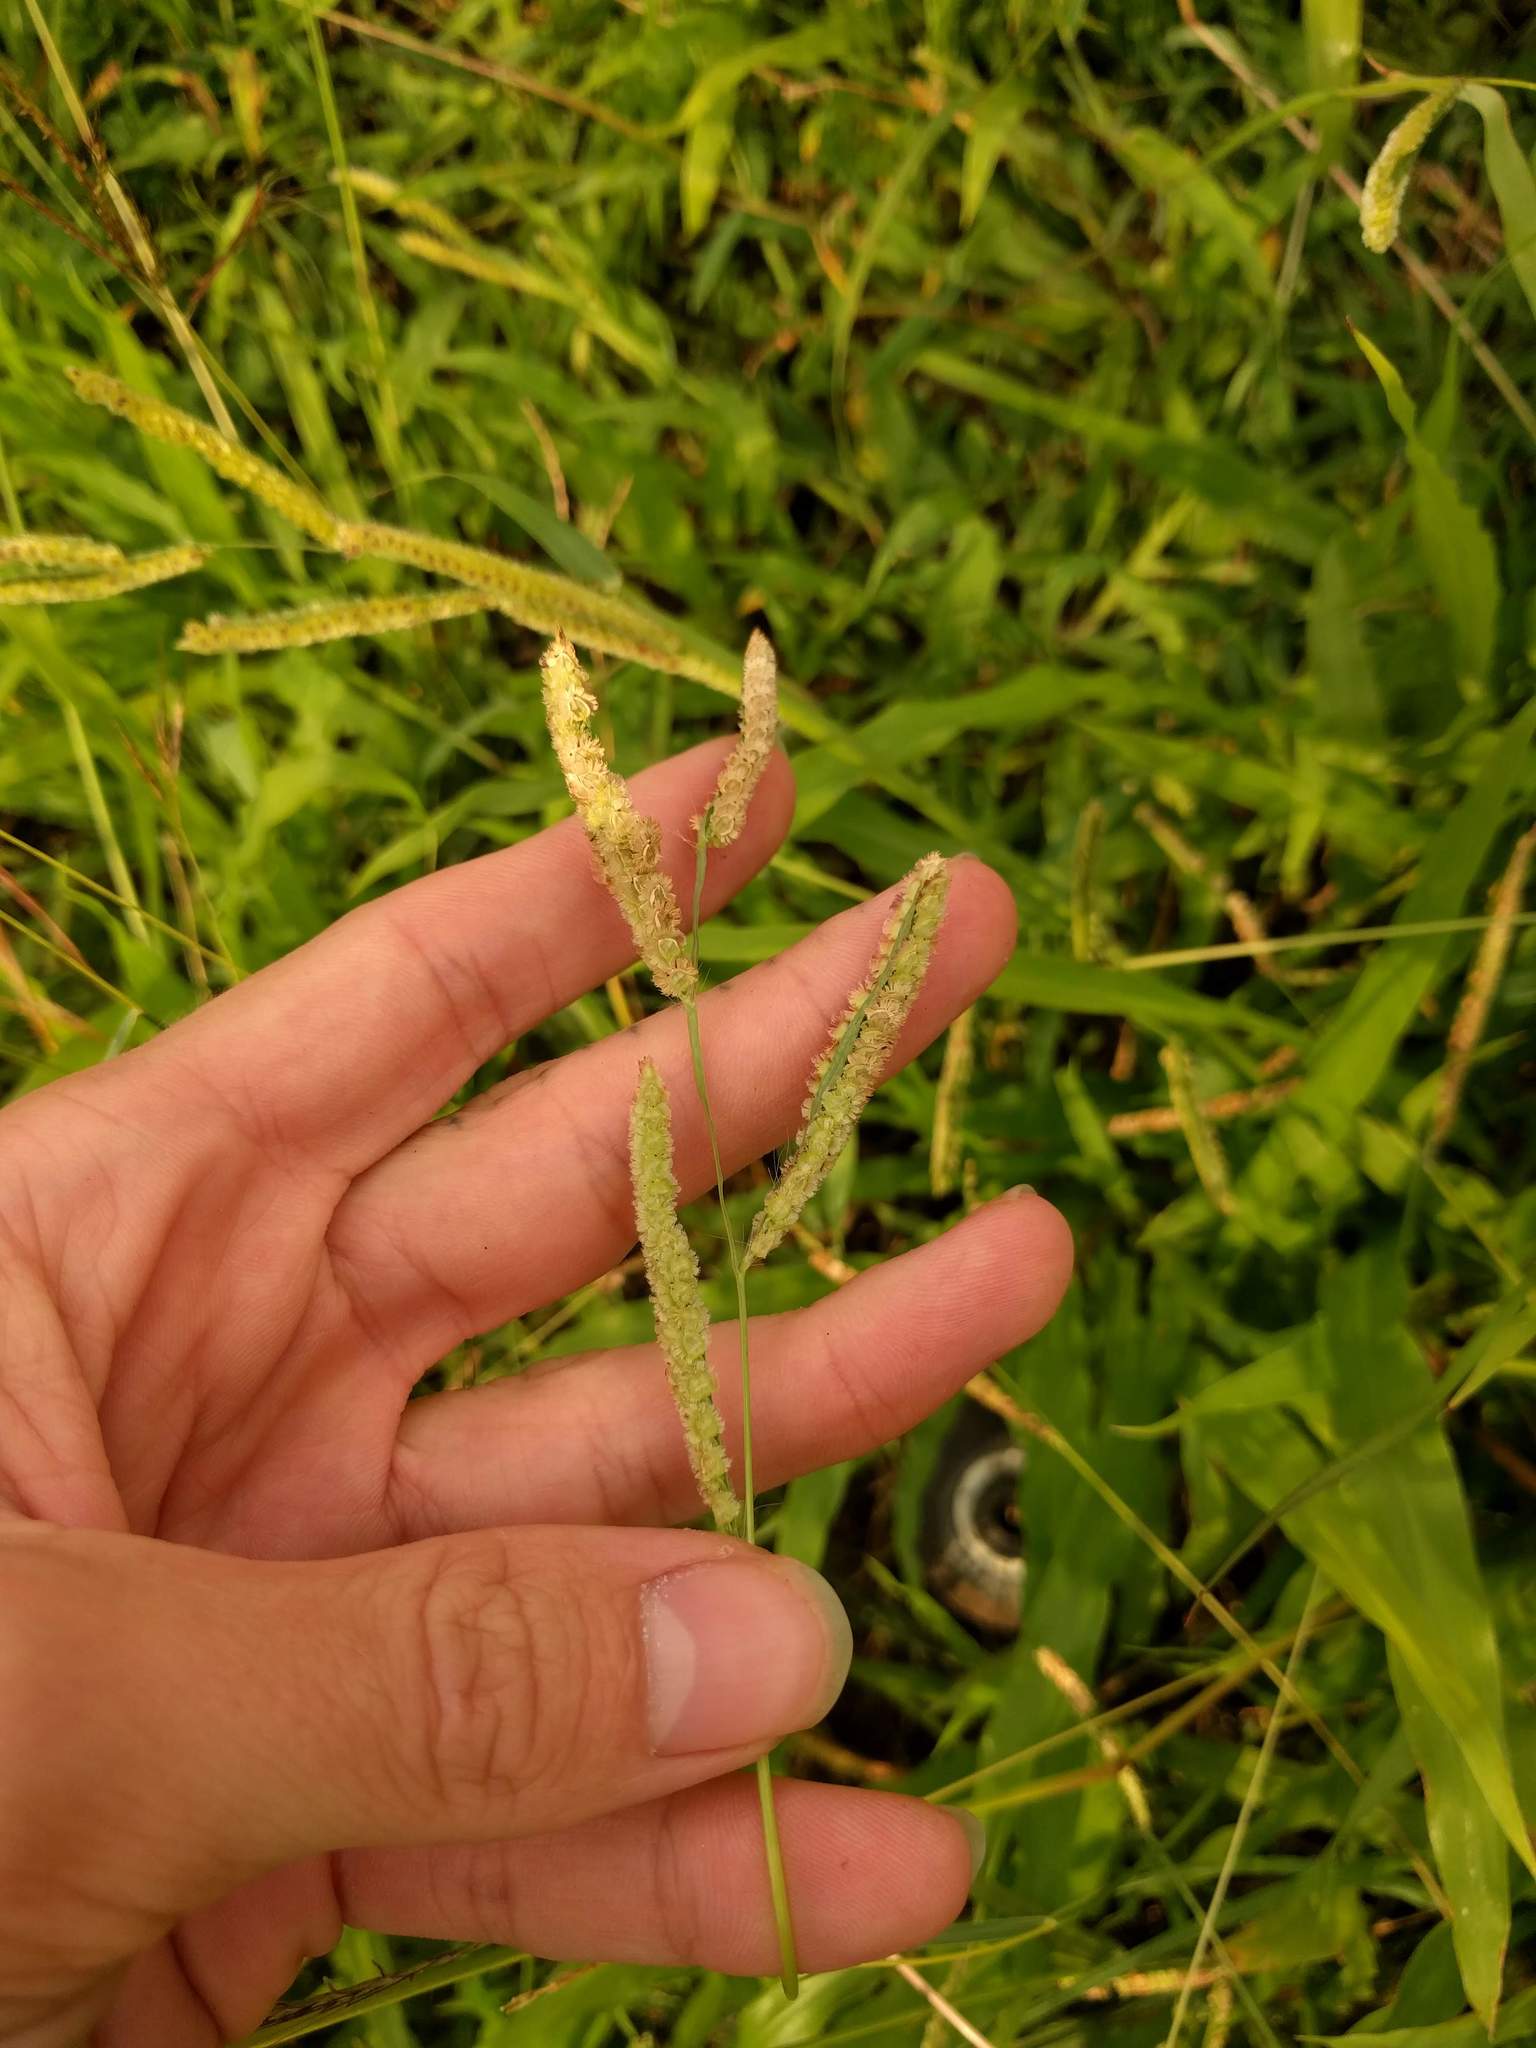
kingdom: Plantae
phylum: Tracheophyta
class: Liliopsida
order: Poales
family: Poaceae
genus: Paspalum
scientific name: Paspalum fimbriatum
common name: Panama crowngrass
